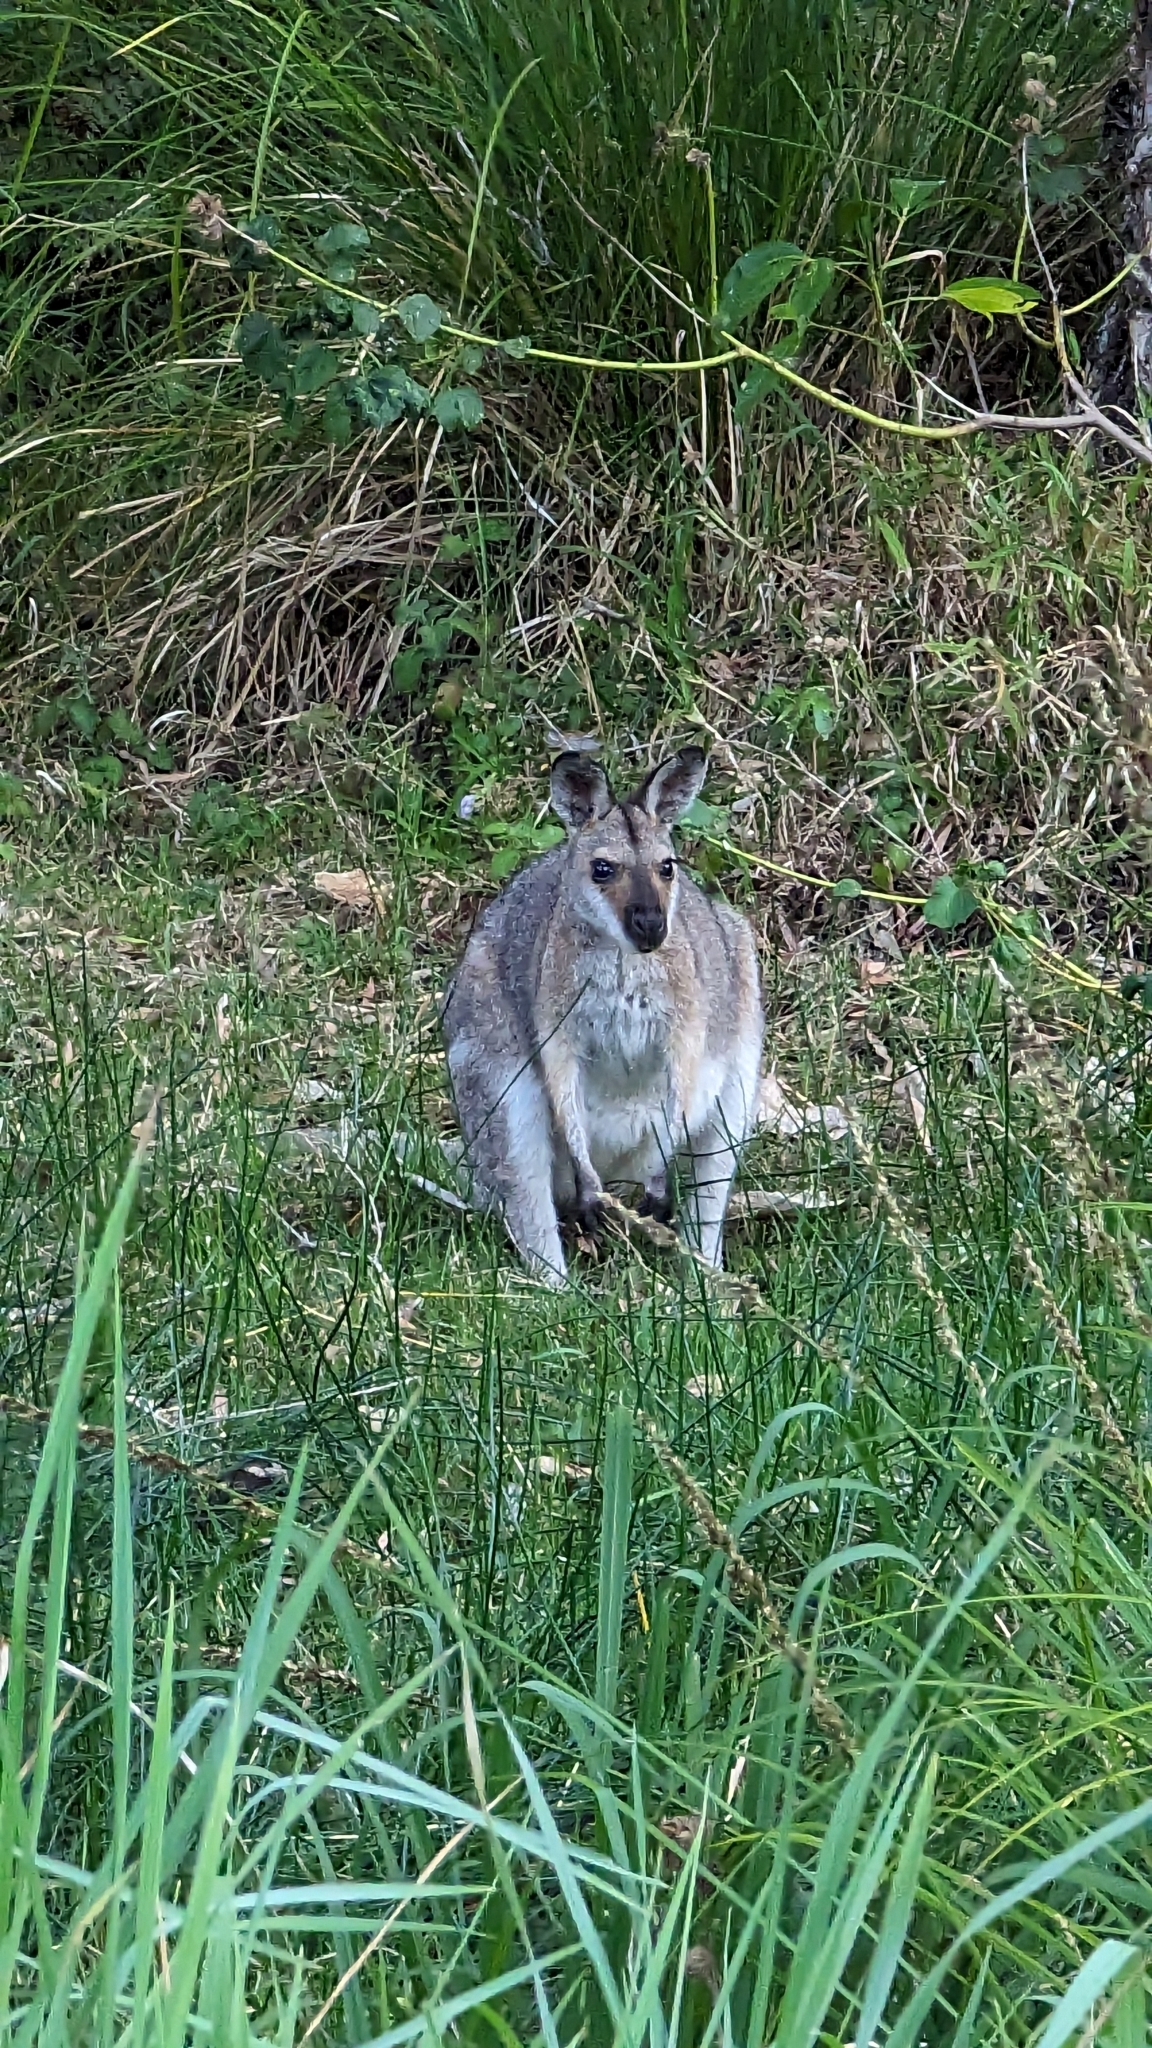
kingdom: Animalia
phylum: Chordata
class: Mammalia
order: Diprotodontia
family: Macropodidae
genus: Notamacropus
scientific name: Notamacropus rufogriseus
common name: Red-necked wallaby
